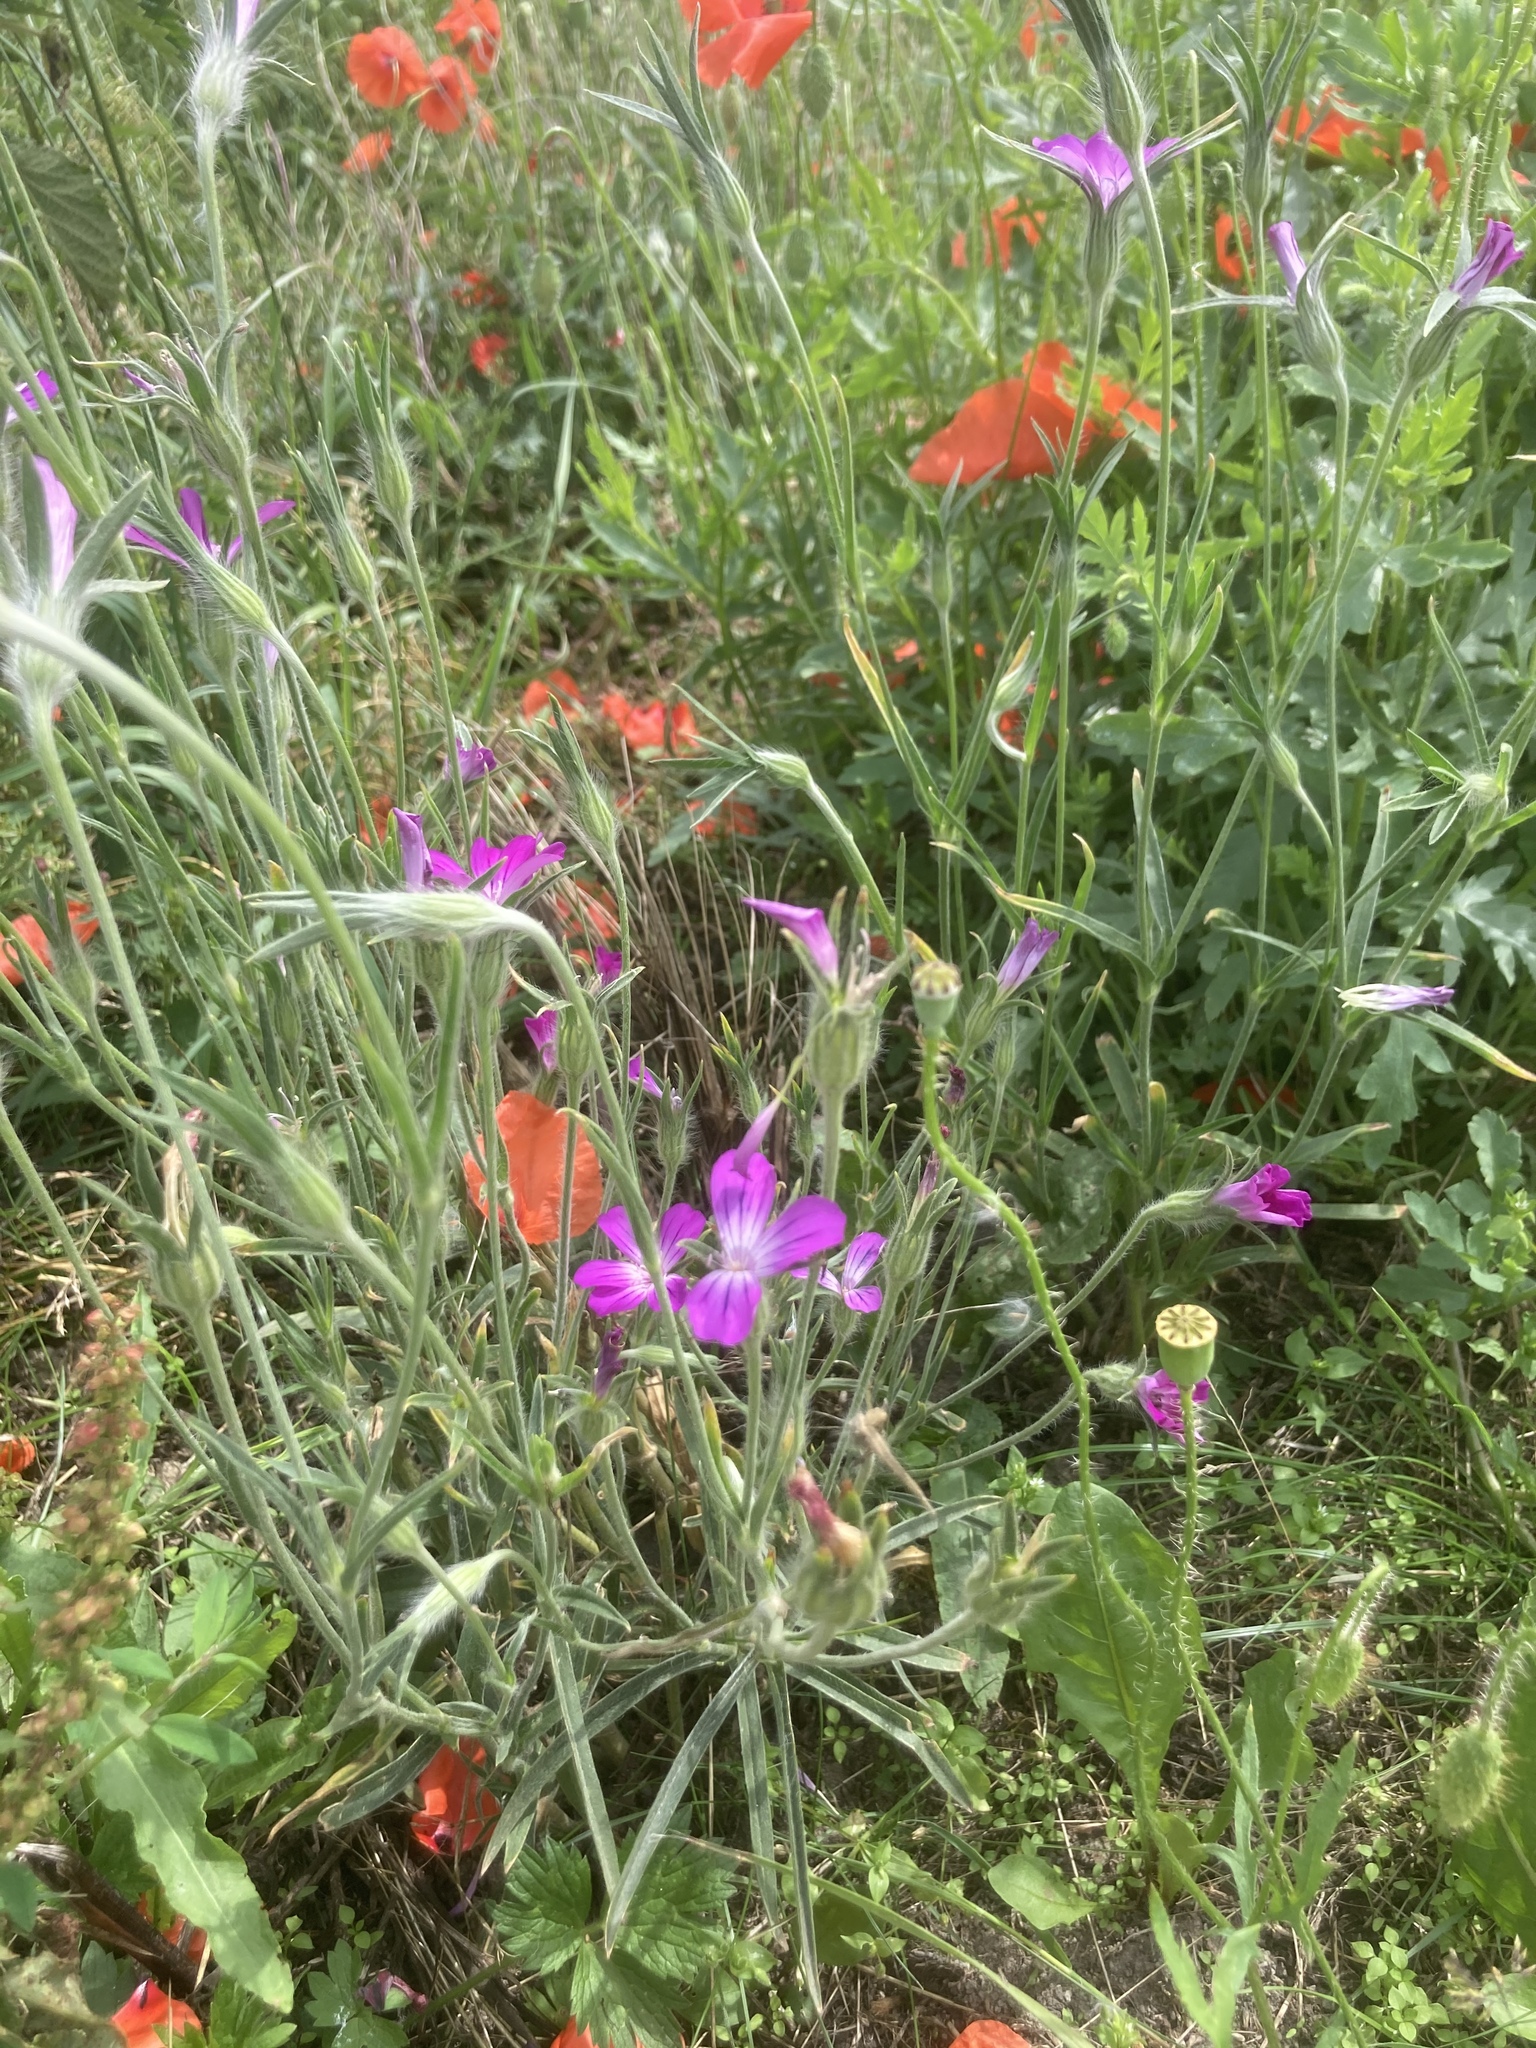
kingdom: Plantae
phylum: Tracheophyta
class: Magnoliopsida
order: Caryophyllales
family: Caryophyllaceae
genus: Agrostemma
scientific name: Agrostemma githago
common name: Common corncockle
